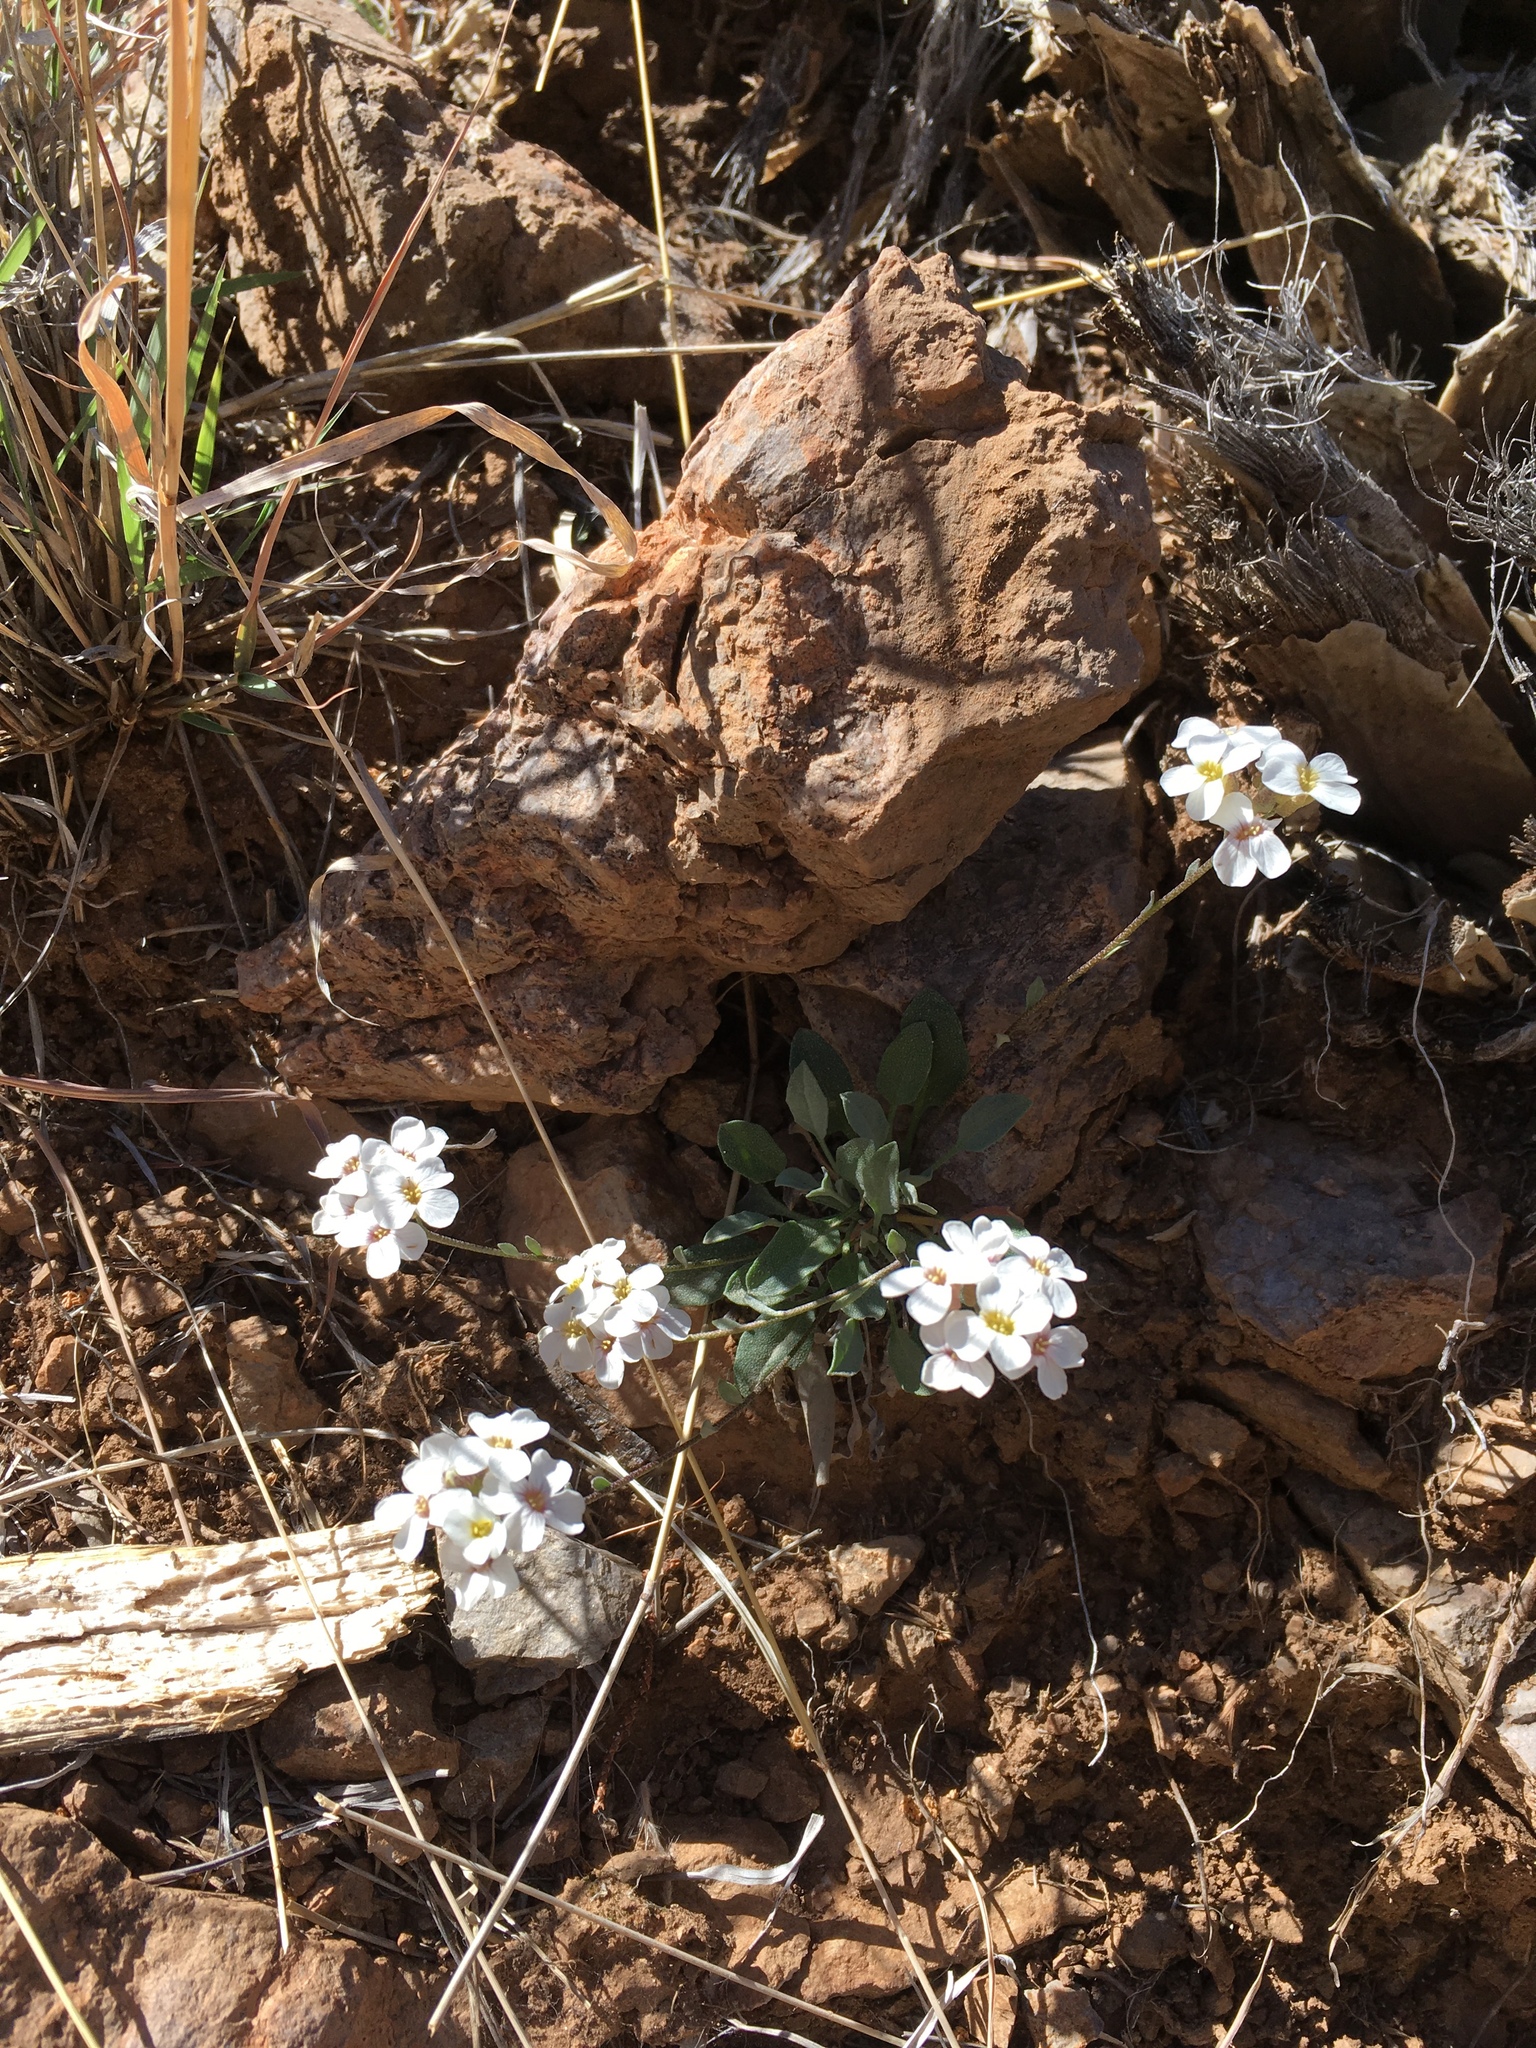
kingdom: Plantae
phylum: Tracheophyta
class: Magnoliopsida
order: Brassicales
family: Brassicaceae
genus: Physaria
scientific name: Physaria purpurea
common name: Rose bladderpod
